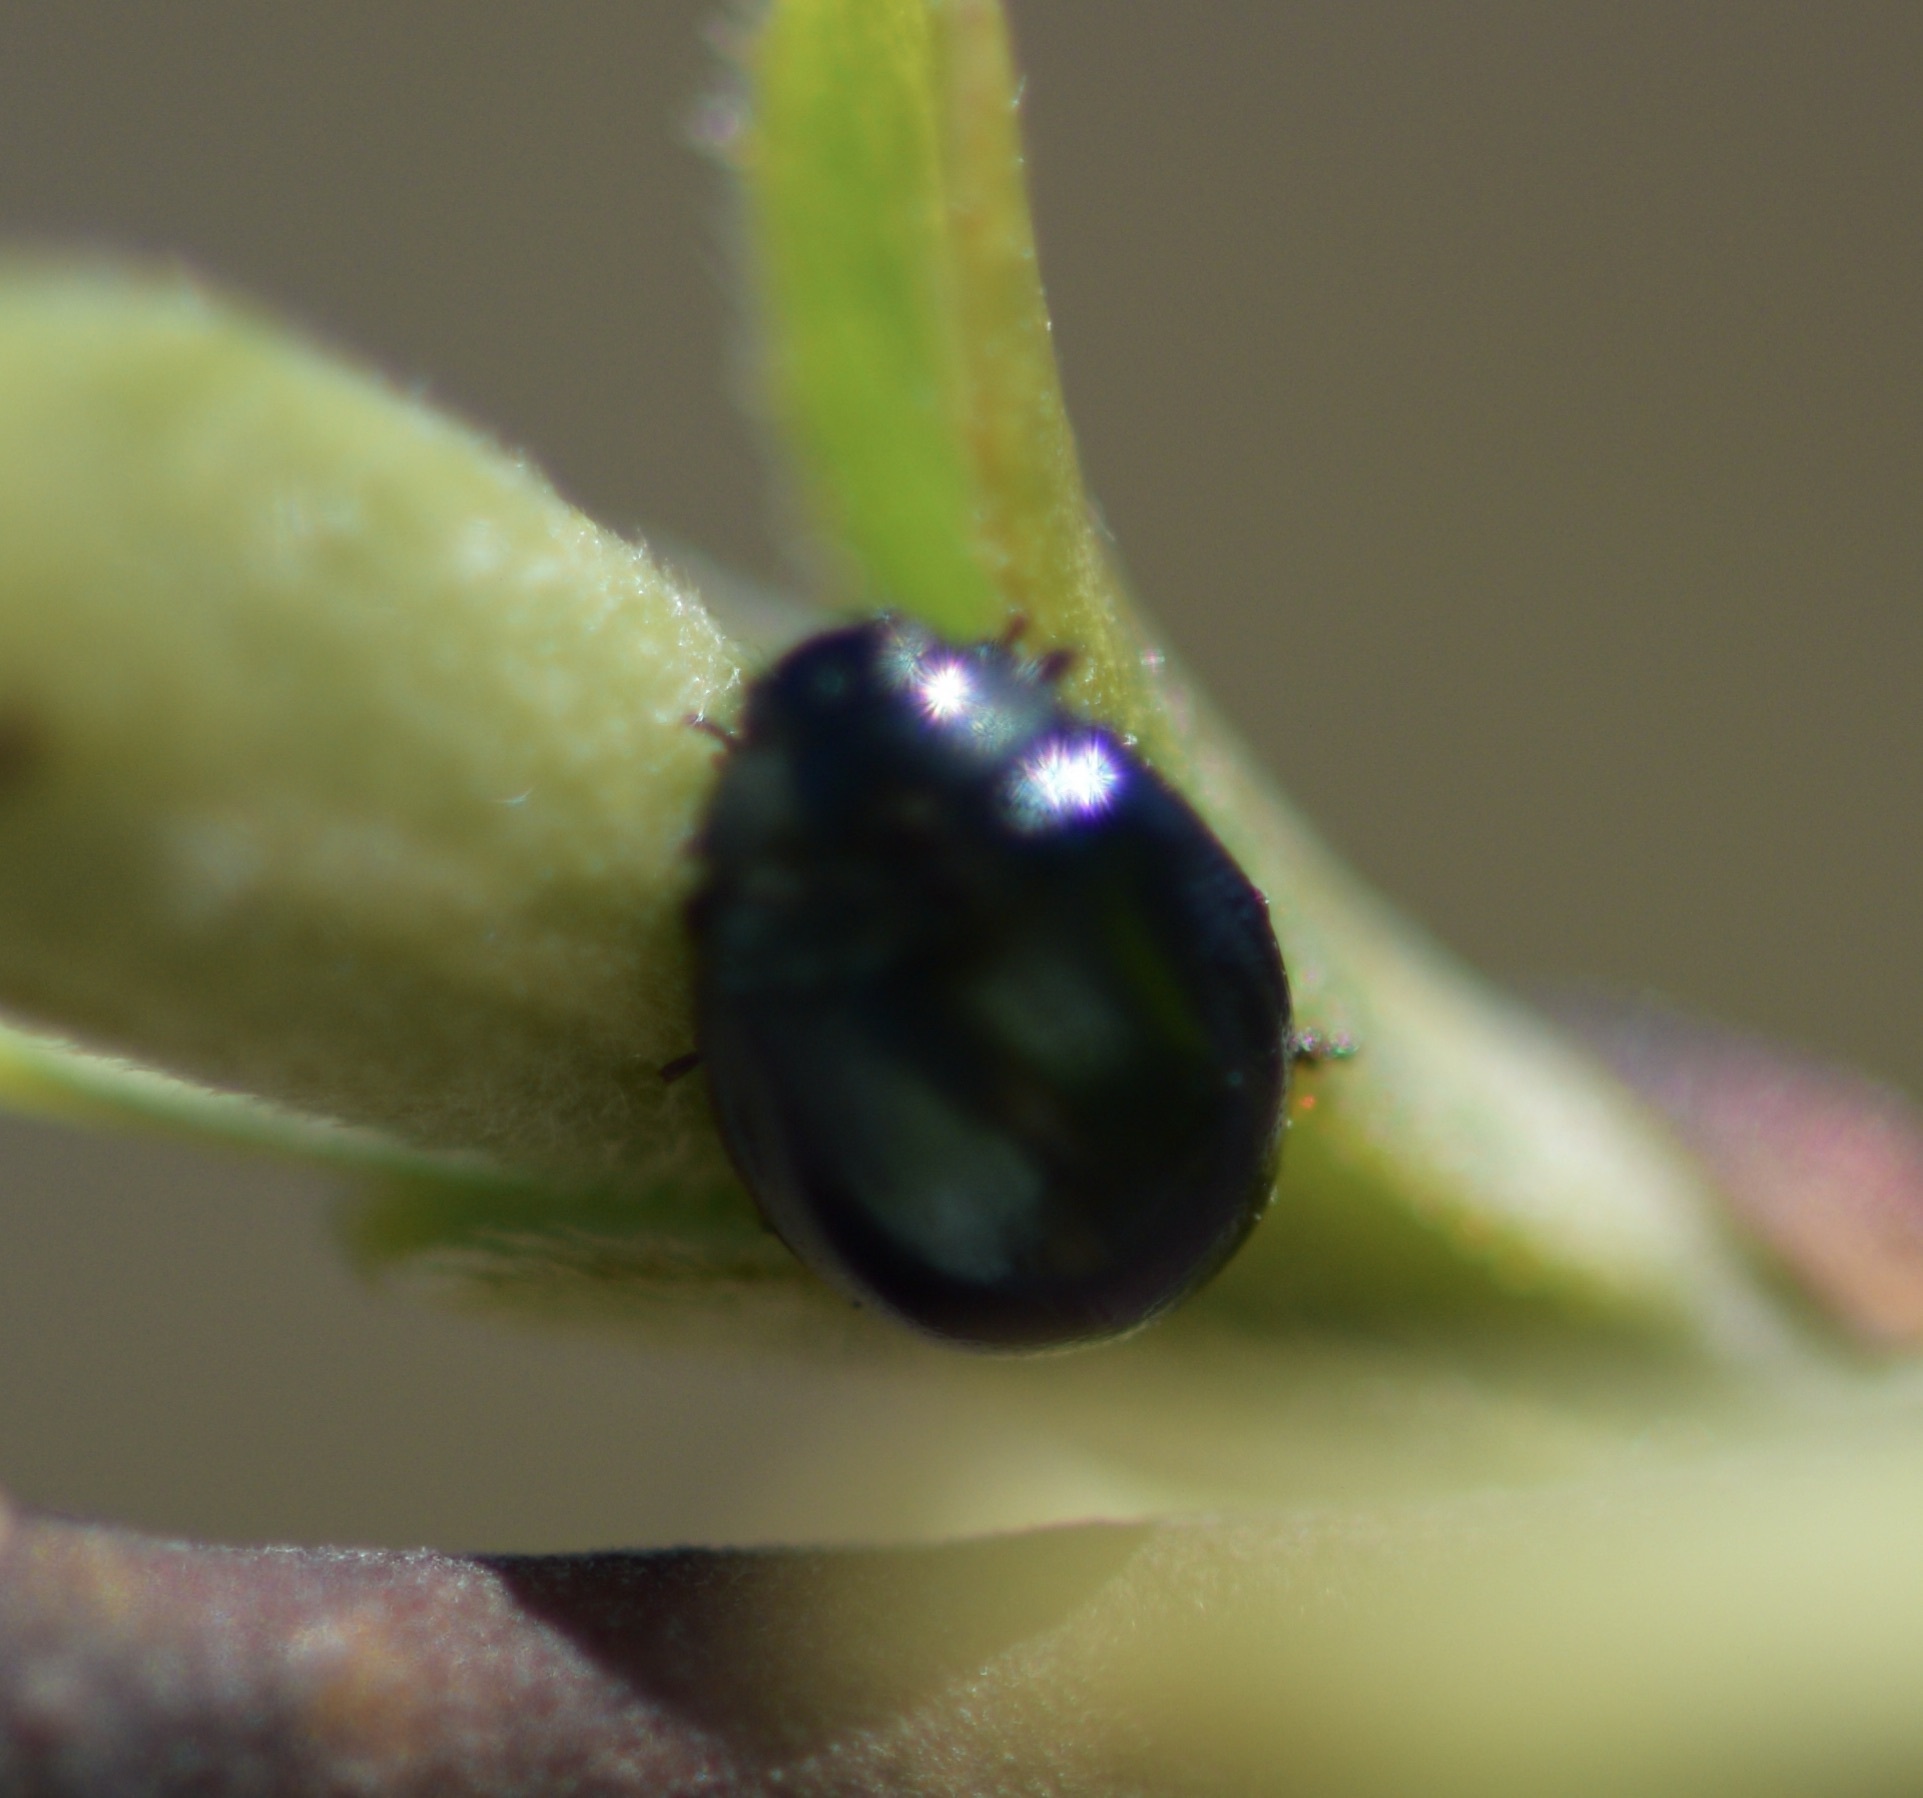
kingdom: Animalia
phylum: Arthropoda
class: Insecta
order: Coleoptera
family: Chrysomelidae
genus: Plagiodera
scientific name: Plagiodera versicolora
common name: Imported willow leaf beetle
